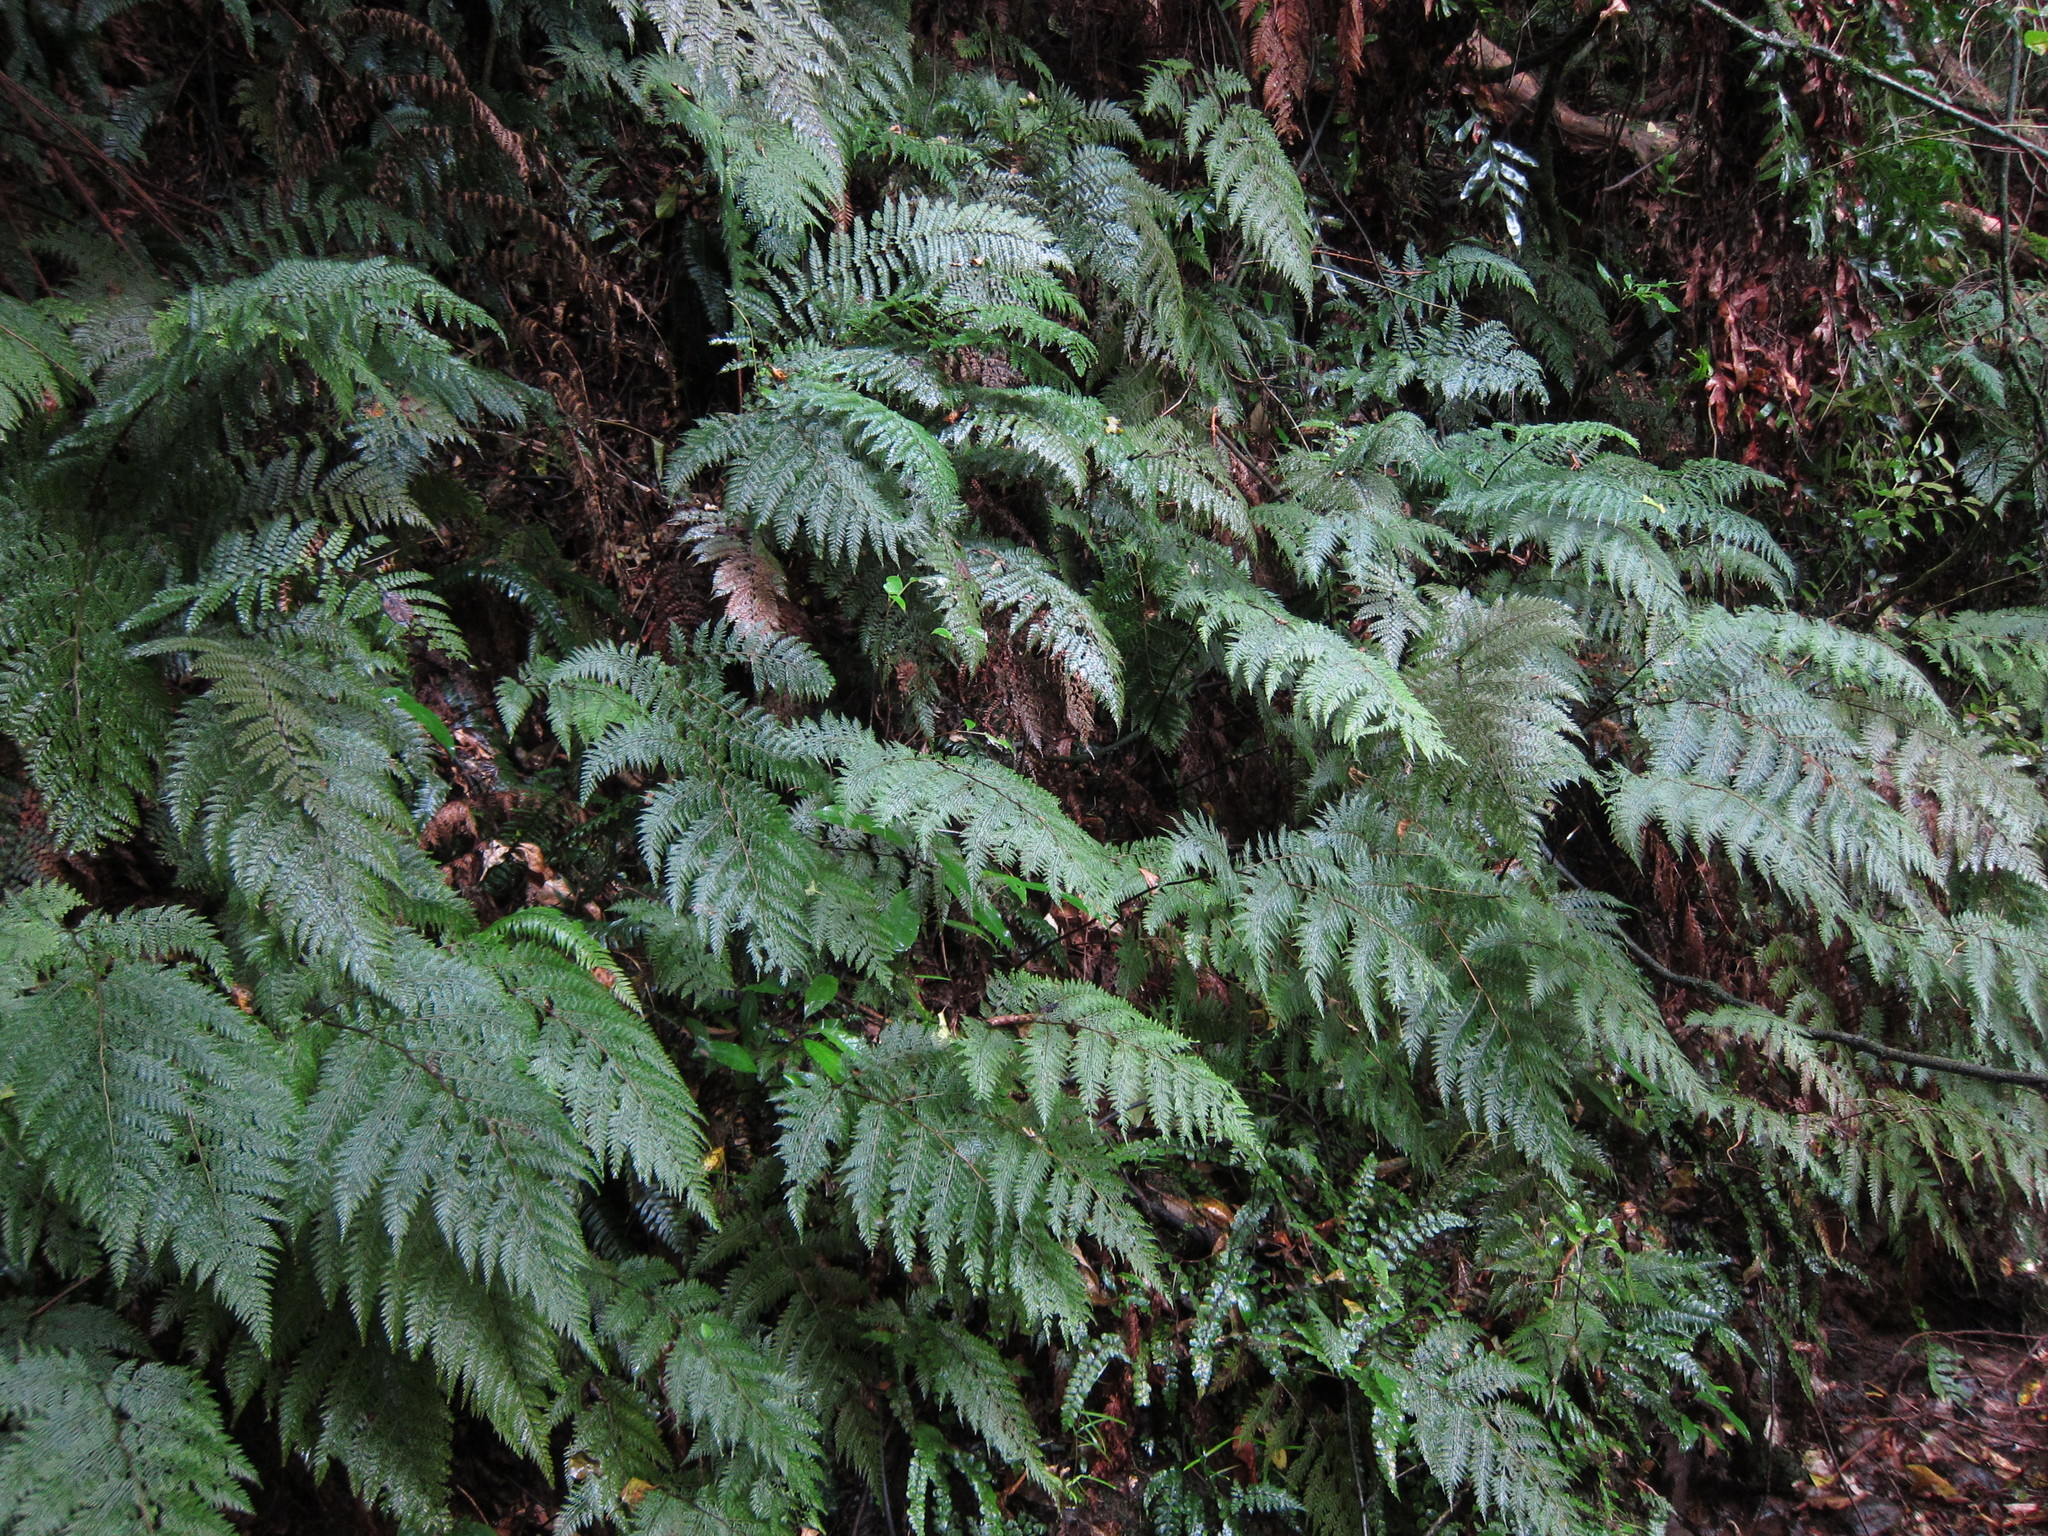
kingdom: Plantae
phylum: Tracheophyta
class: Polypodiopsida
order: Polypodiales
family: Dennstaedtiaceae
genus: Dennstaedtia
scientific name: Dennstaedtia novae-zelandiae
